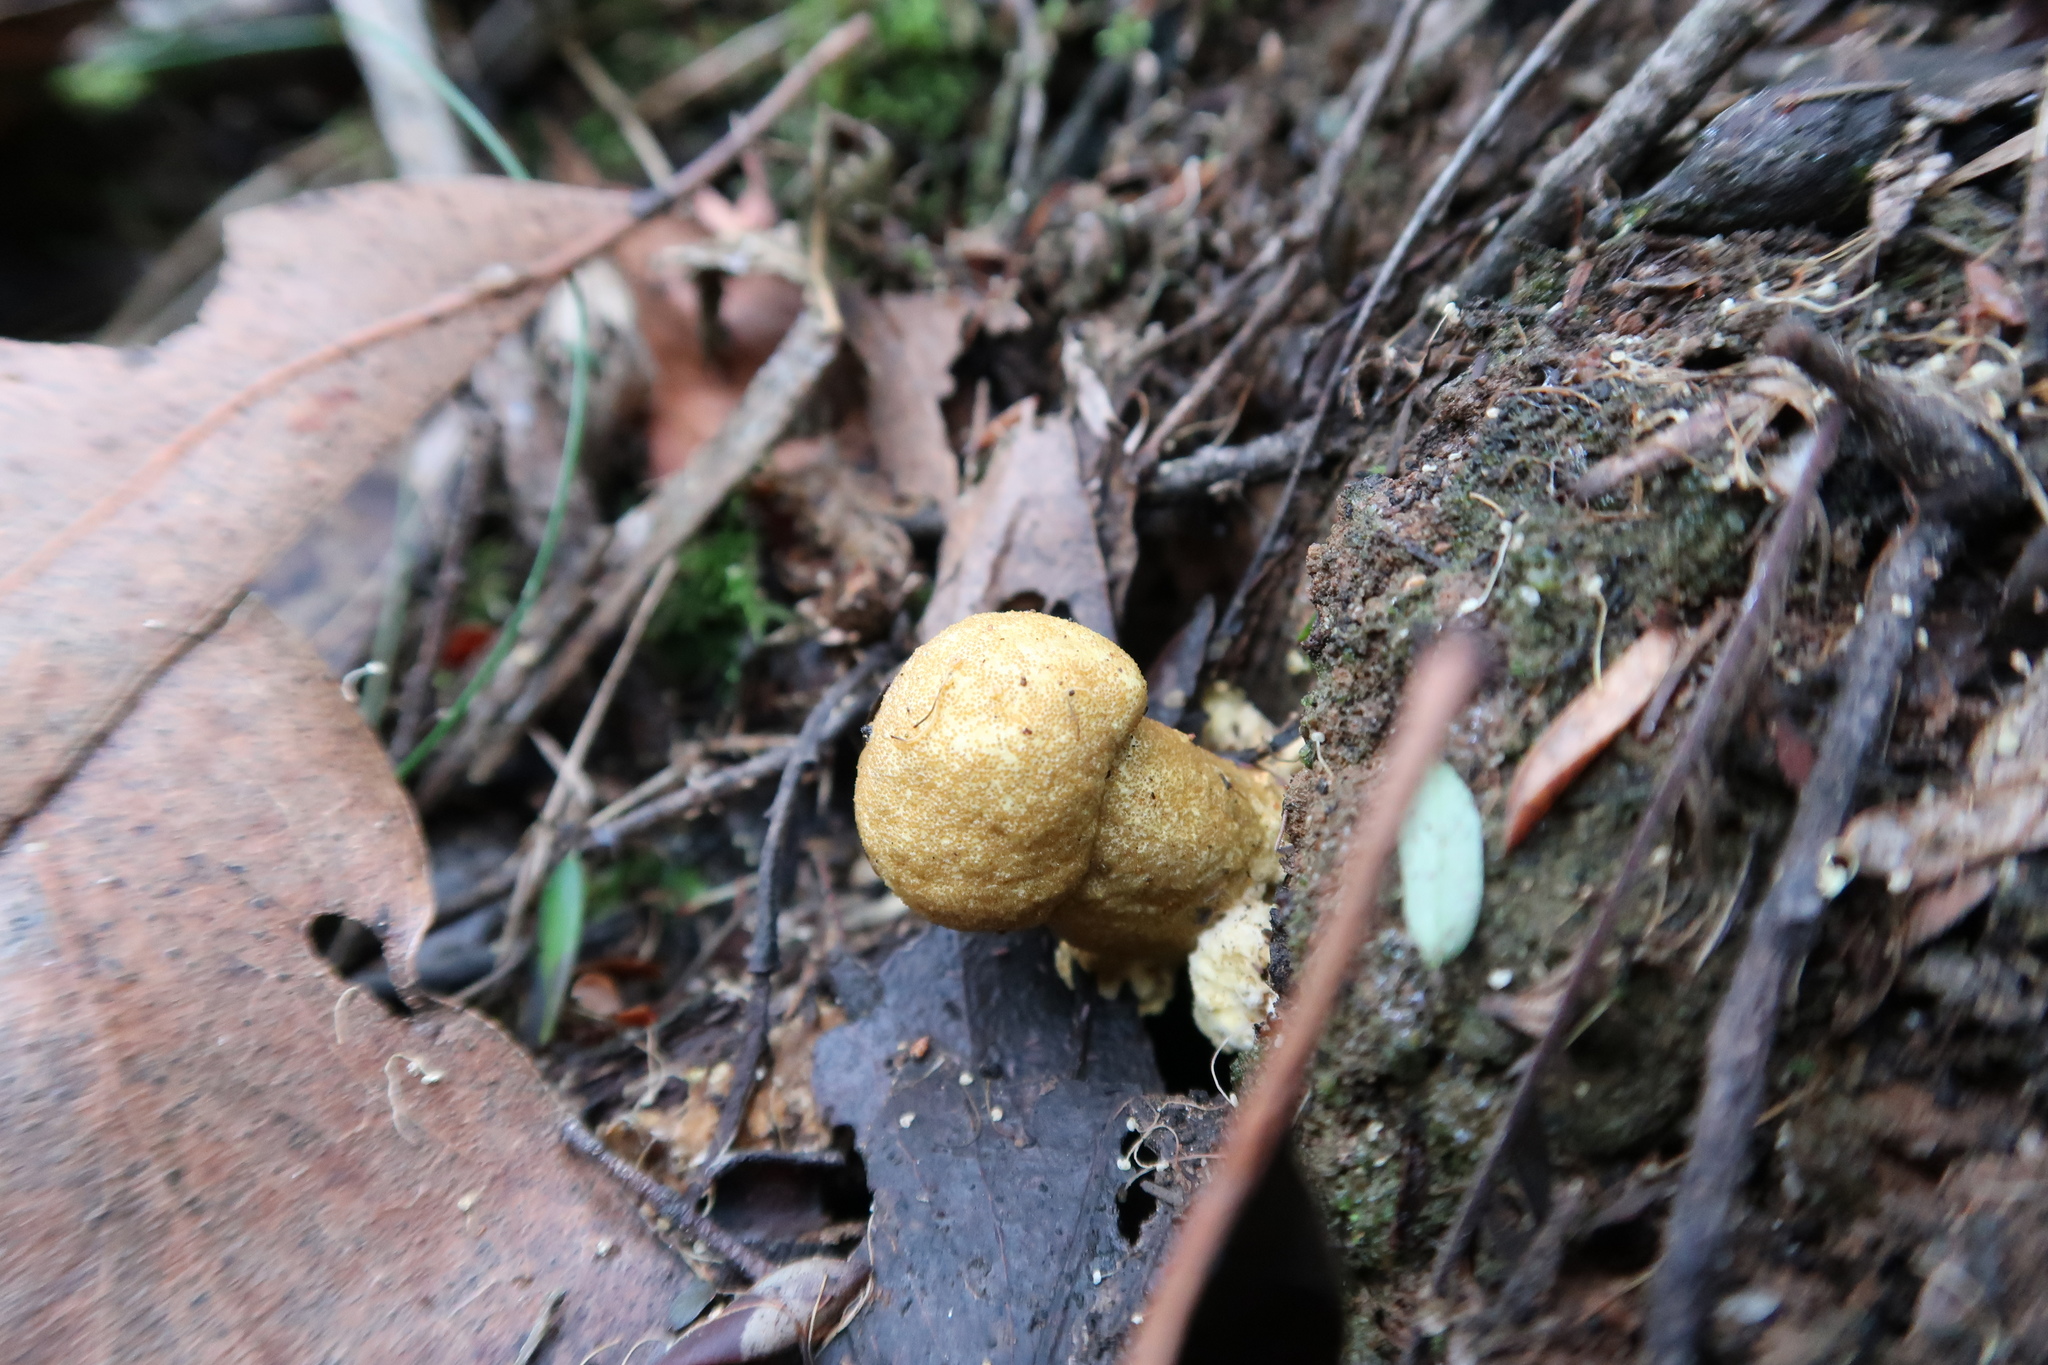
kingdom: Fungi
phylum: Ascomycota
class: Sordariomycetes
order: Hypocreales
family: Cordycipitaceae
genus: Cordyceps
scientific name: Cordyceps
